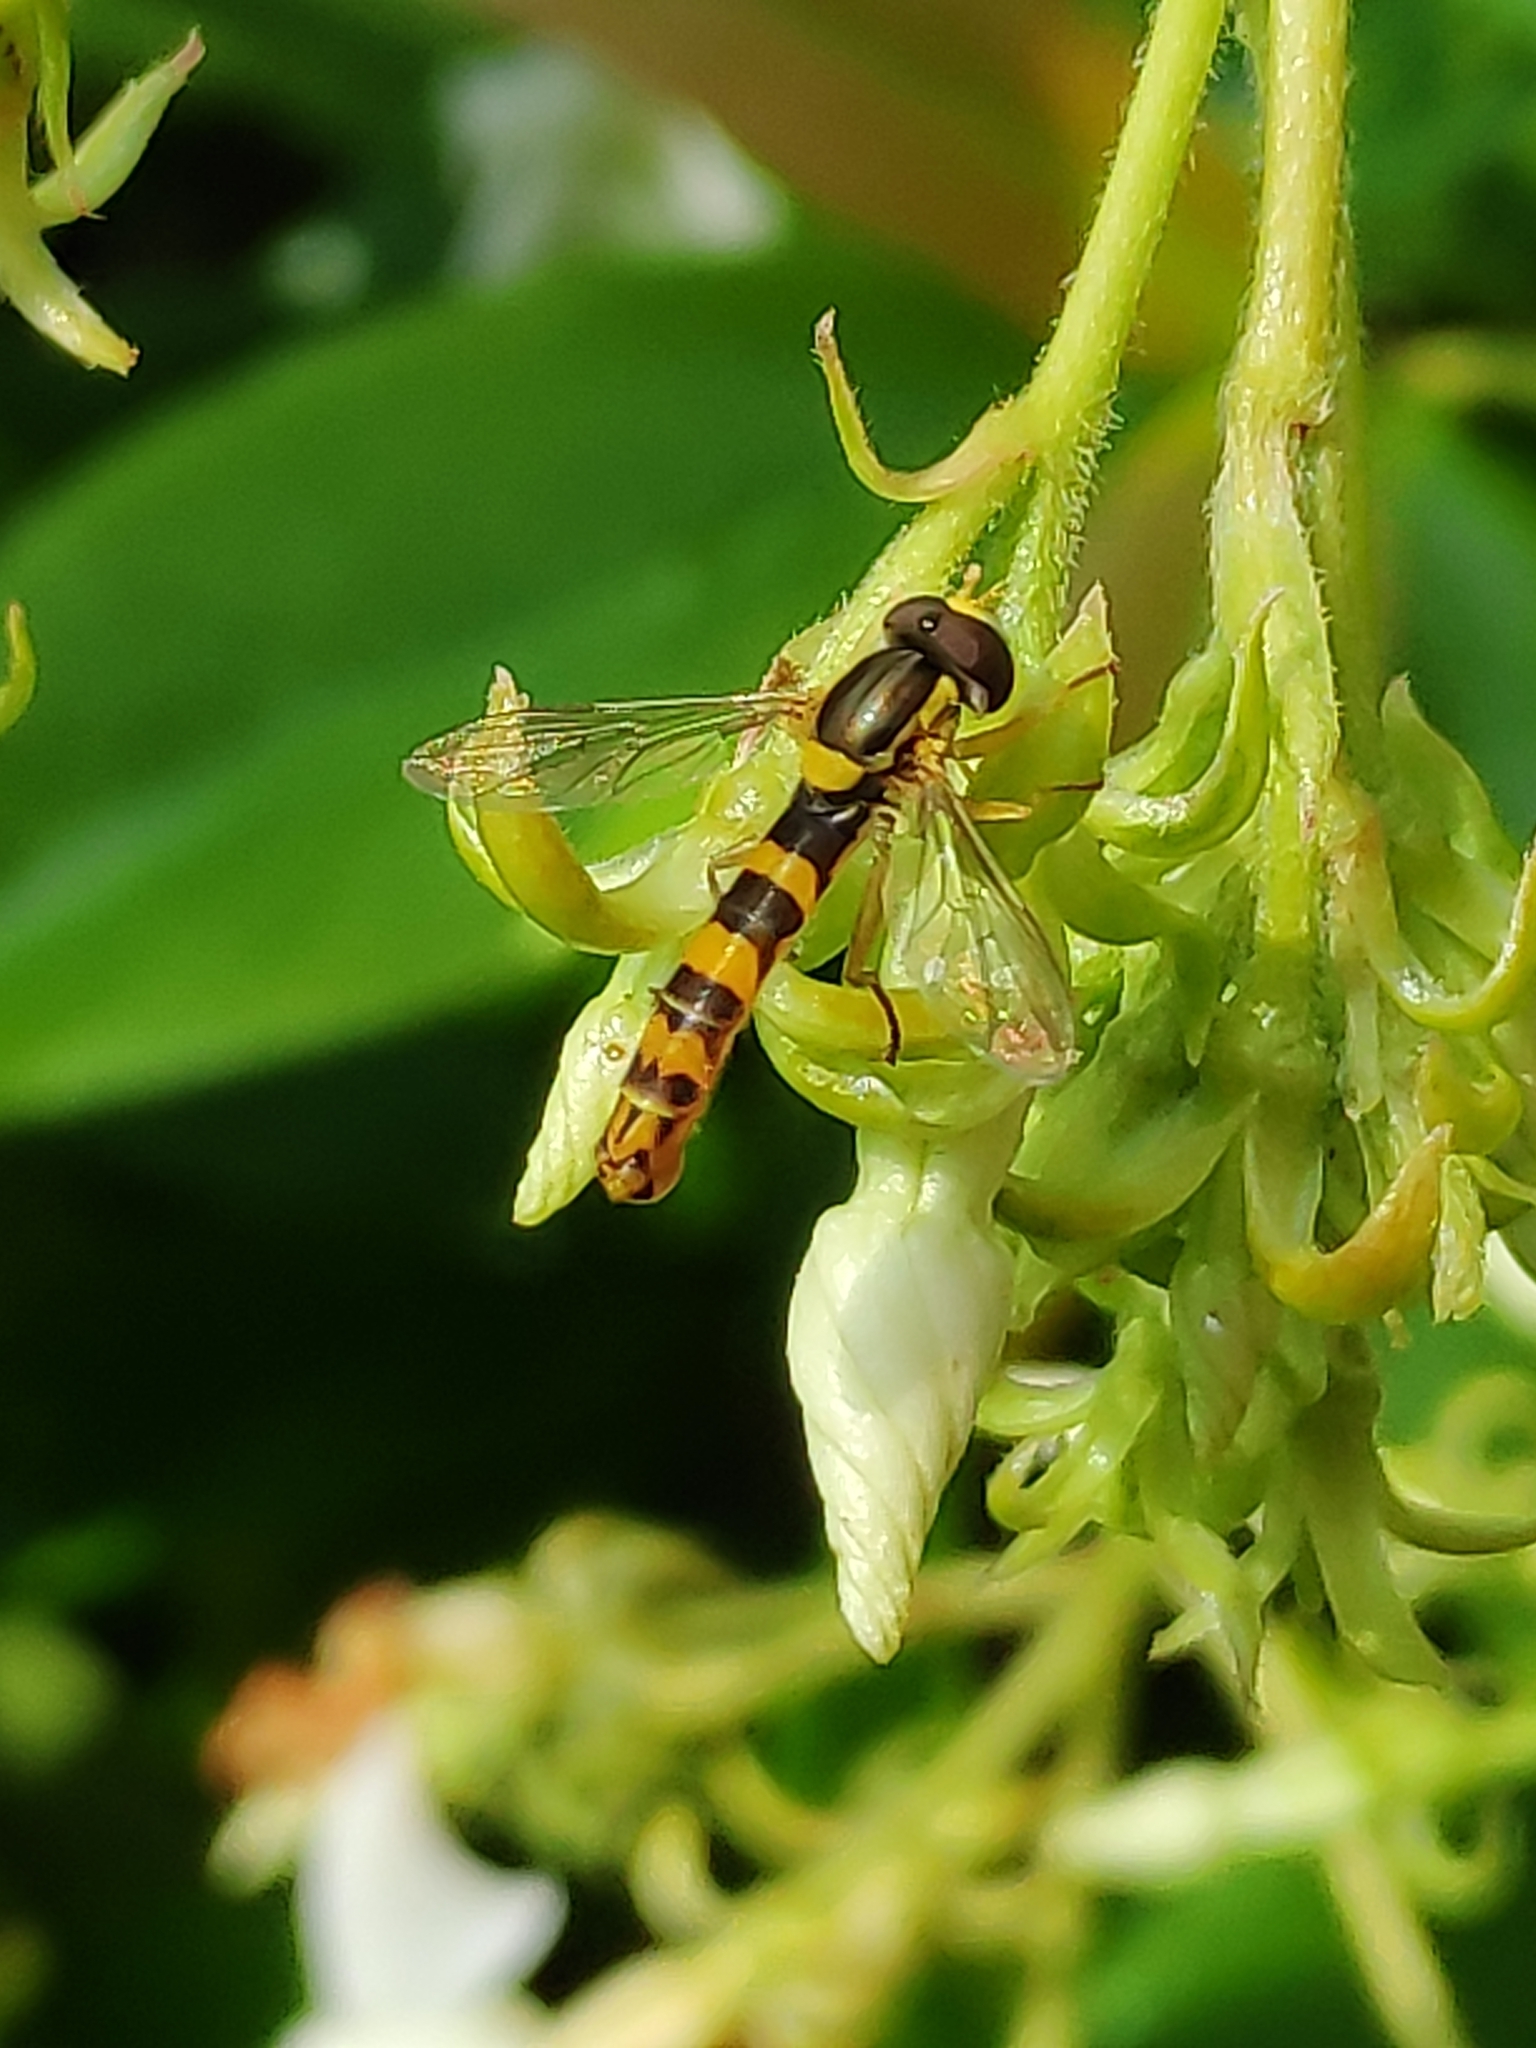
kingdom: Animalia
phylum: Arthropoda
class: Insecta
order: Diptera
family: Syrphidae
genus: Sphaerophoria
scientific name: Sphaerophoria scripta
